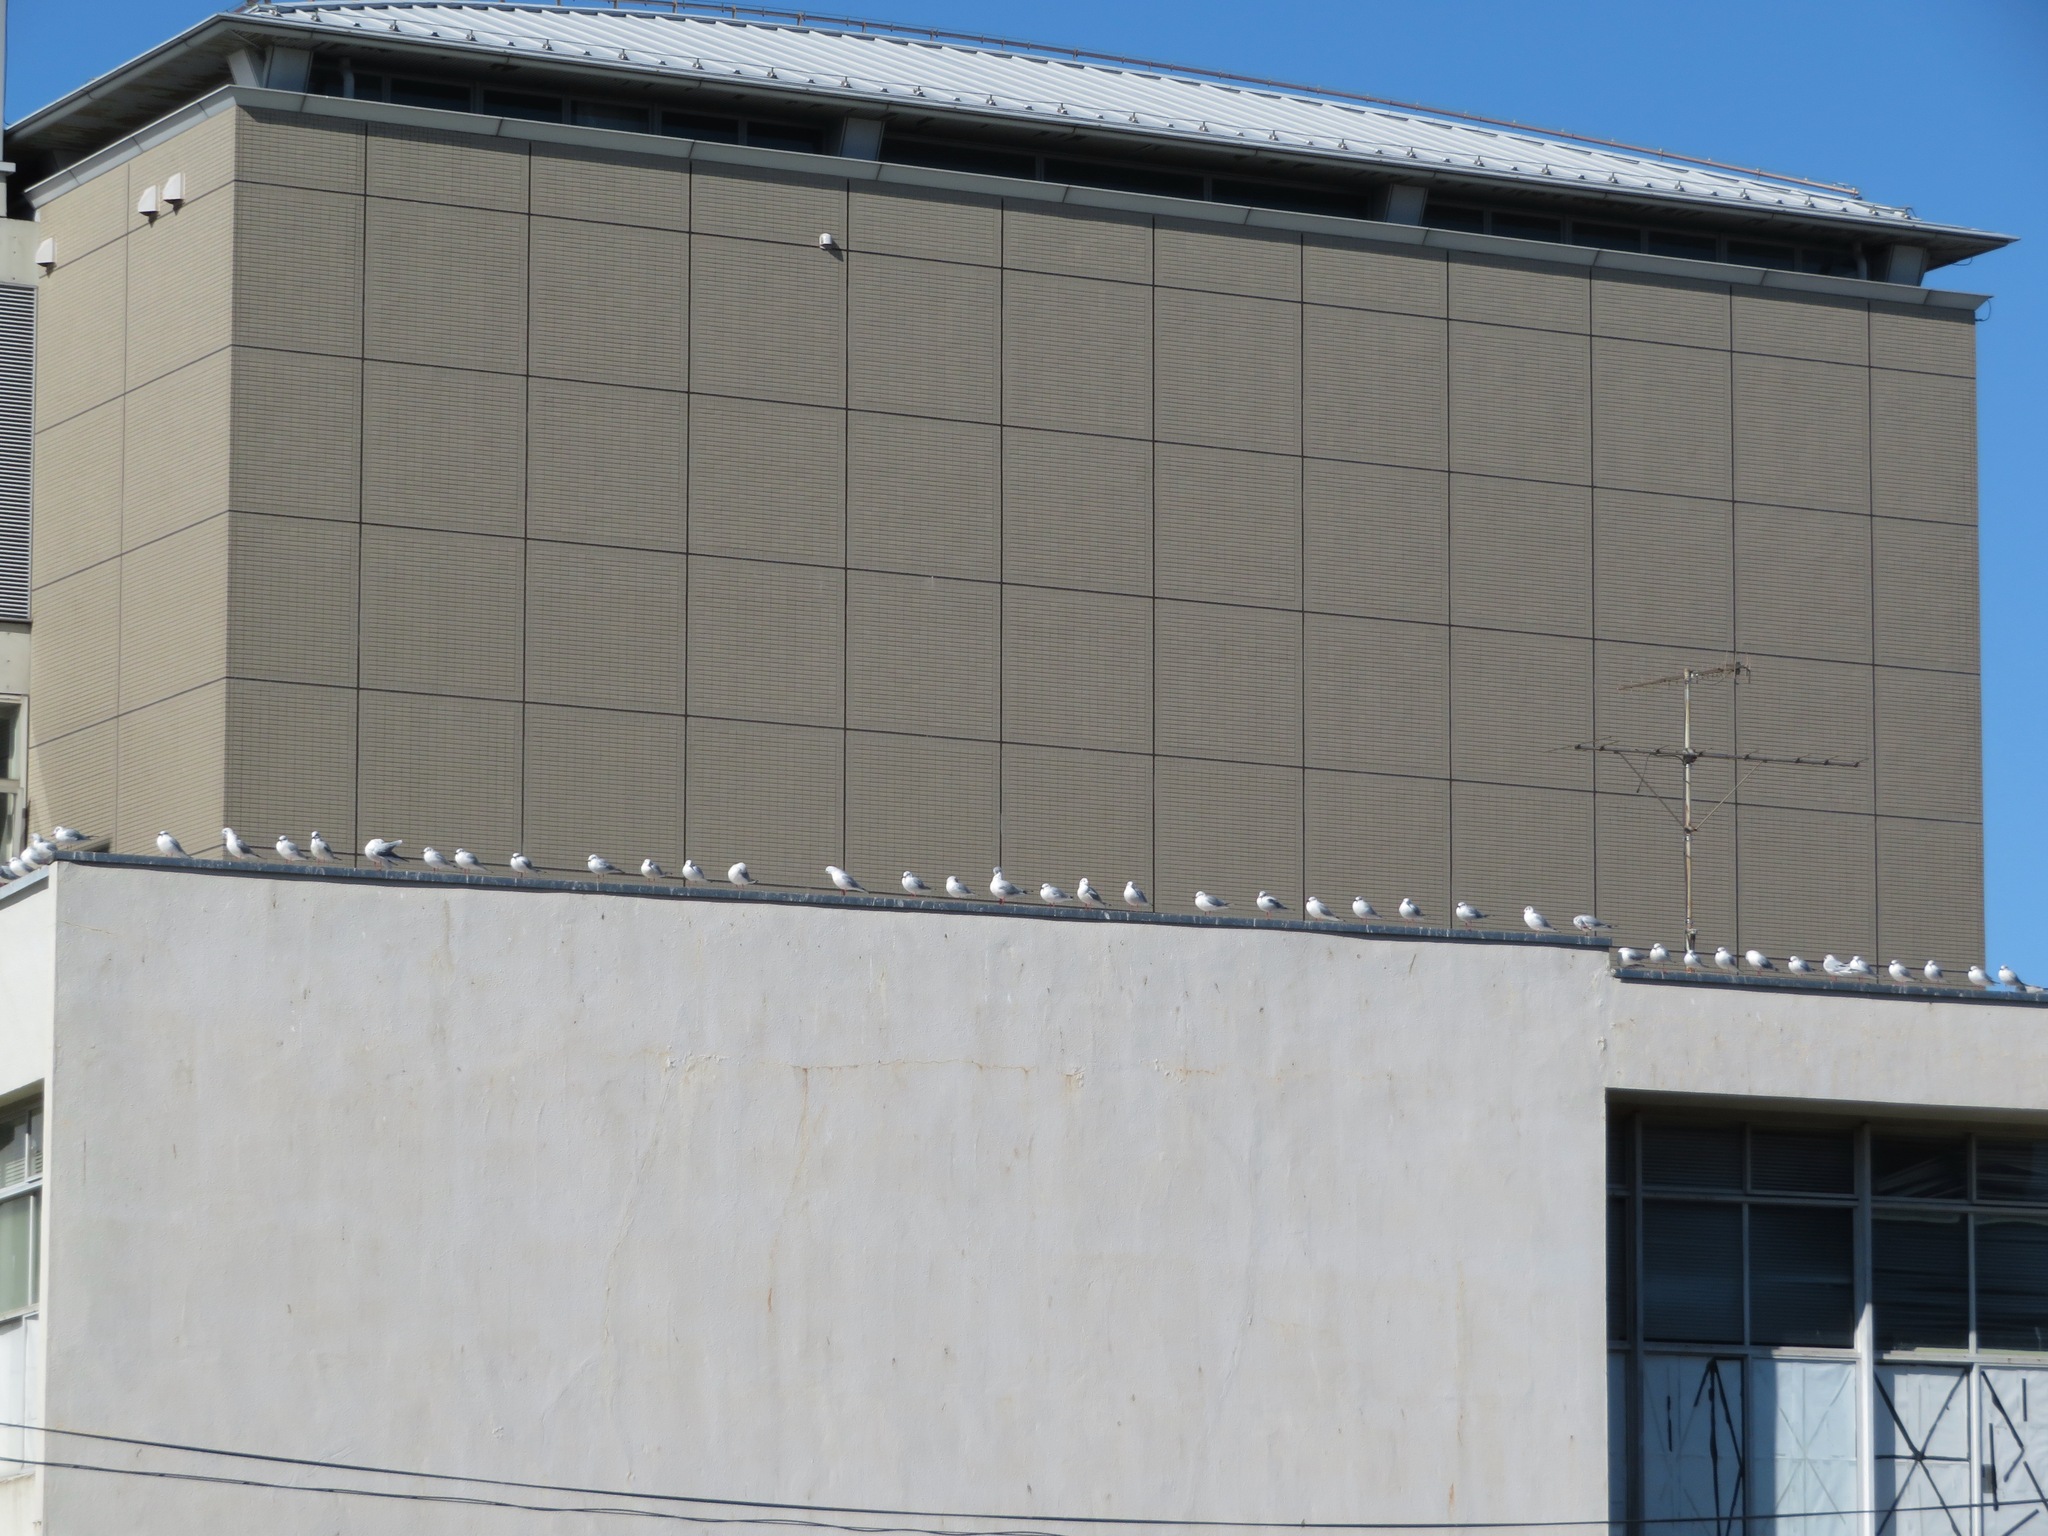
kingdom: Animalia
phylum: Chordata
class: Aves
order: Charadriiformes
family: Laridae
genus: Chroicocephalus
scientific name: Chroicocephalus ridibundus
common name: Black-headed gull
